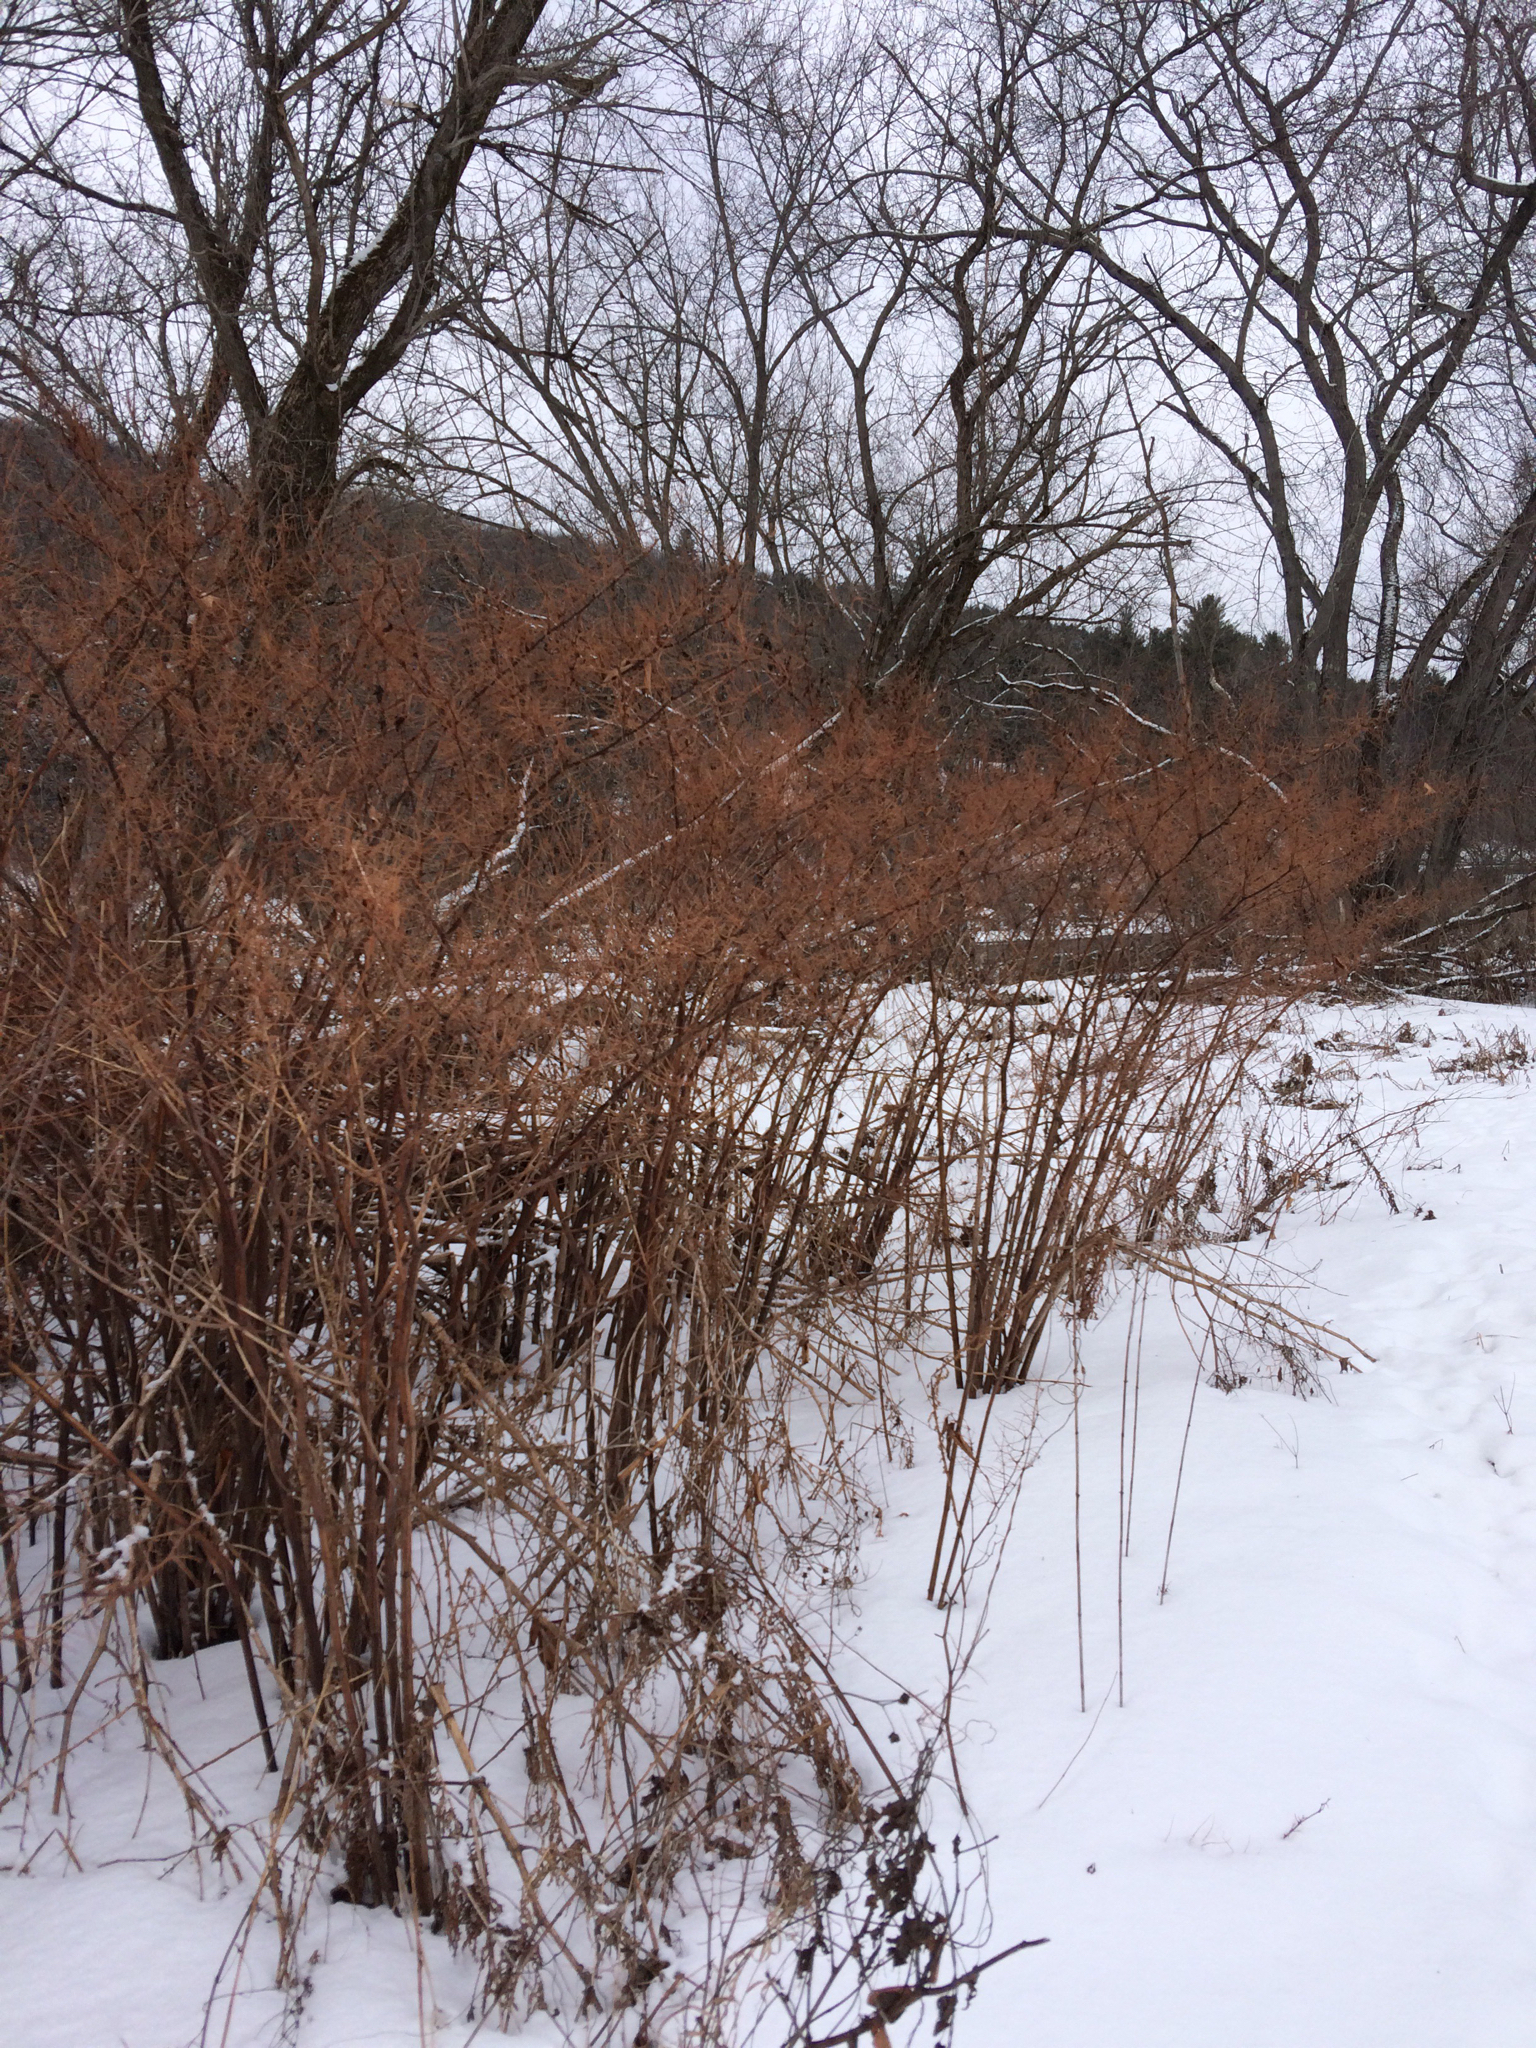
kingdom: Plantae
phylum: Tracheophyta
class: Magnoliopsida
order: Caryophyllales
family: Polygonaceae
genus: Reynoutria
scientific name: Reynoutria japonica
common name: Japanese knotweed
